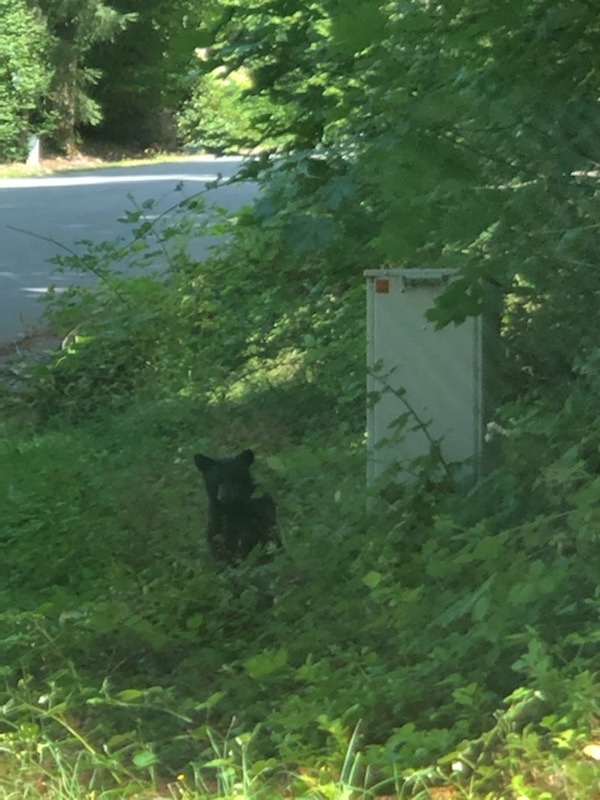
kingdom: Animalia
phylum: Chordata
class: Mammalia
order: Carnivora
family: Ursidae
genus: Ursus
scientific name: Ursus americanus
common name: American black bear
